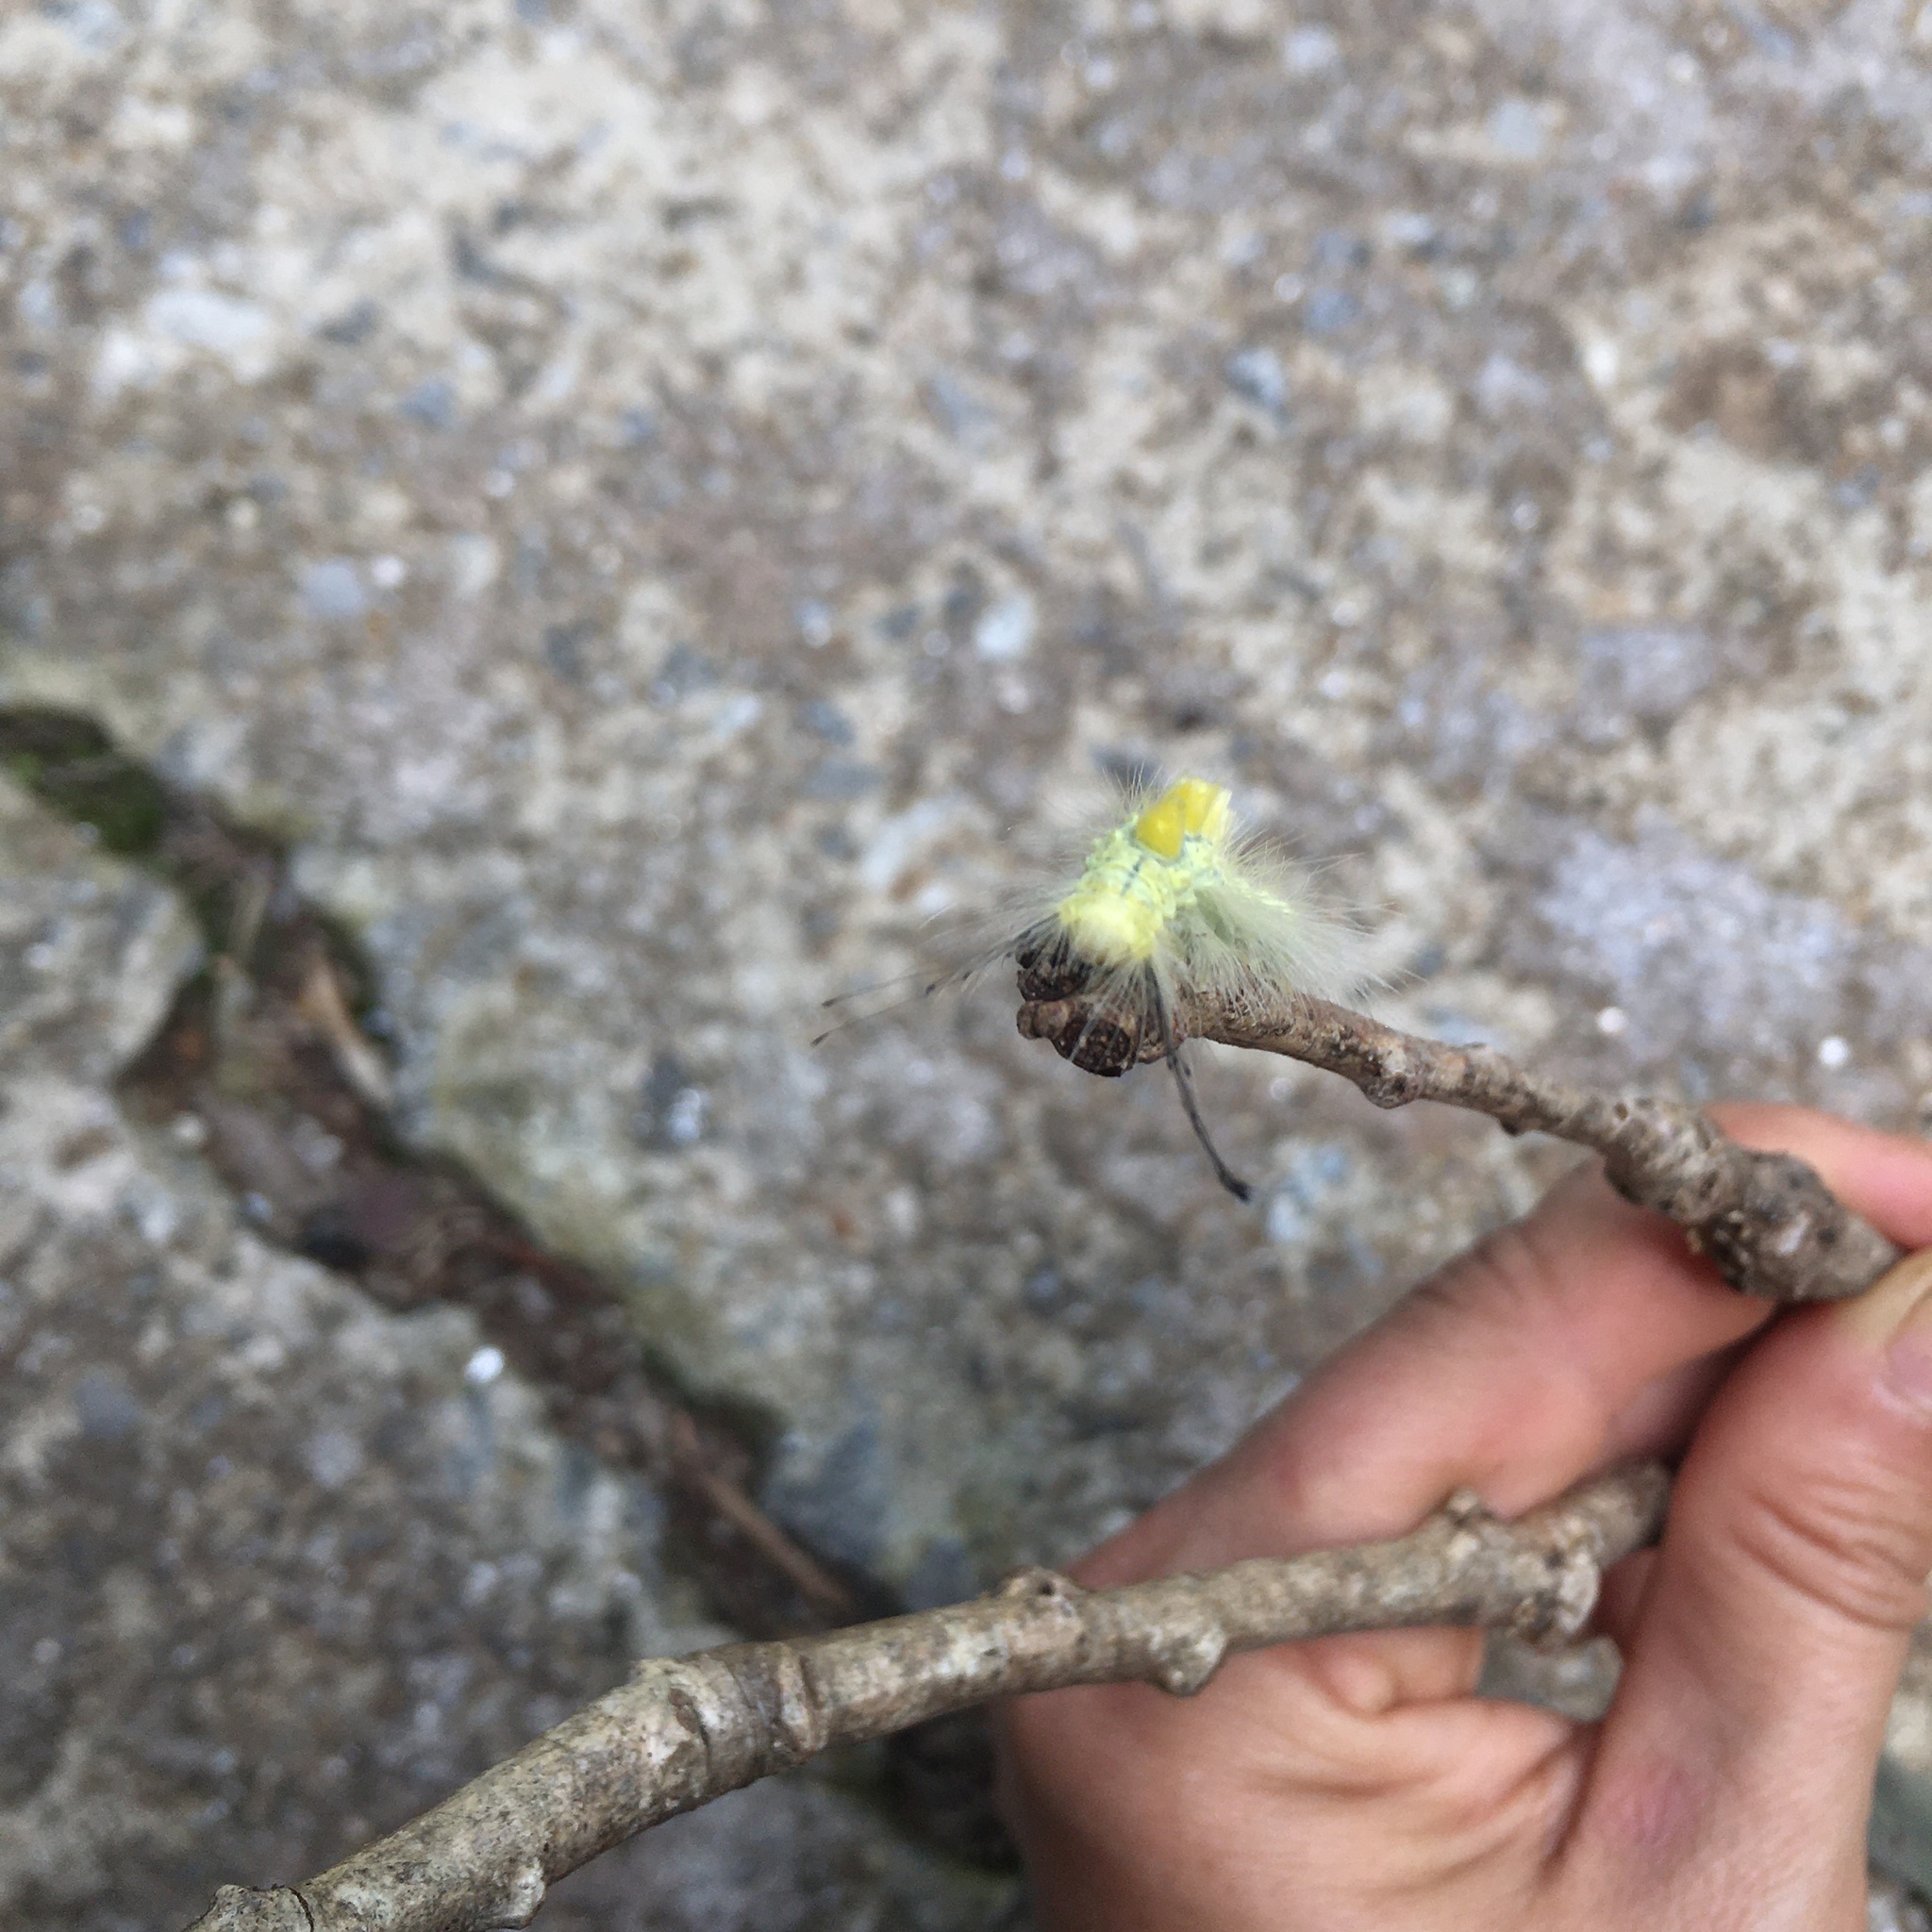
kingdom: Animalia
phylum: Arthropoda
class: Insecta
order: Lepidoptera
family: Erebidae
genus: Orgyia
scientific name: Orgyia definita
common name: Definite tussock moth
